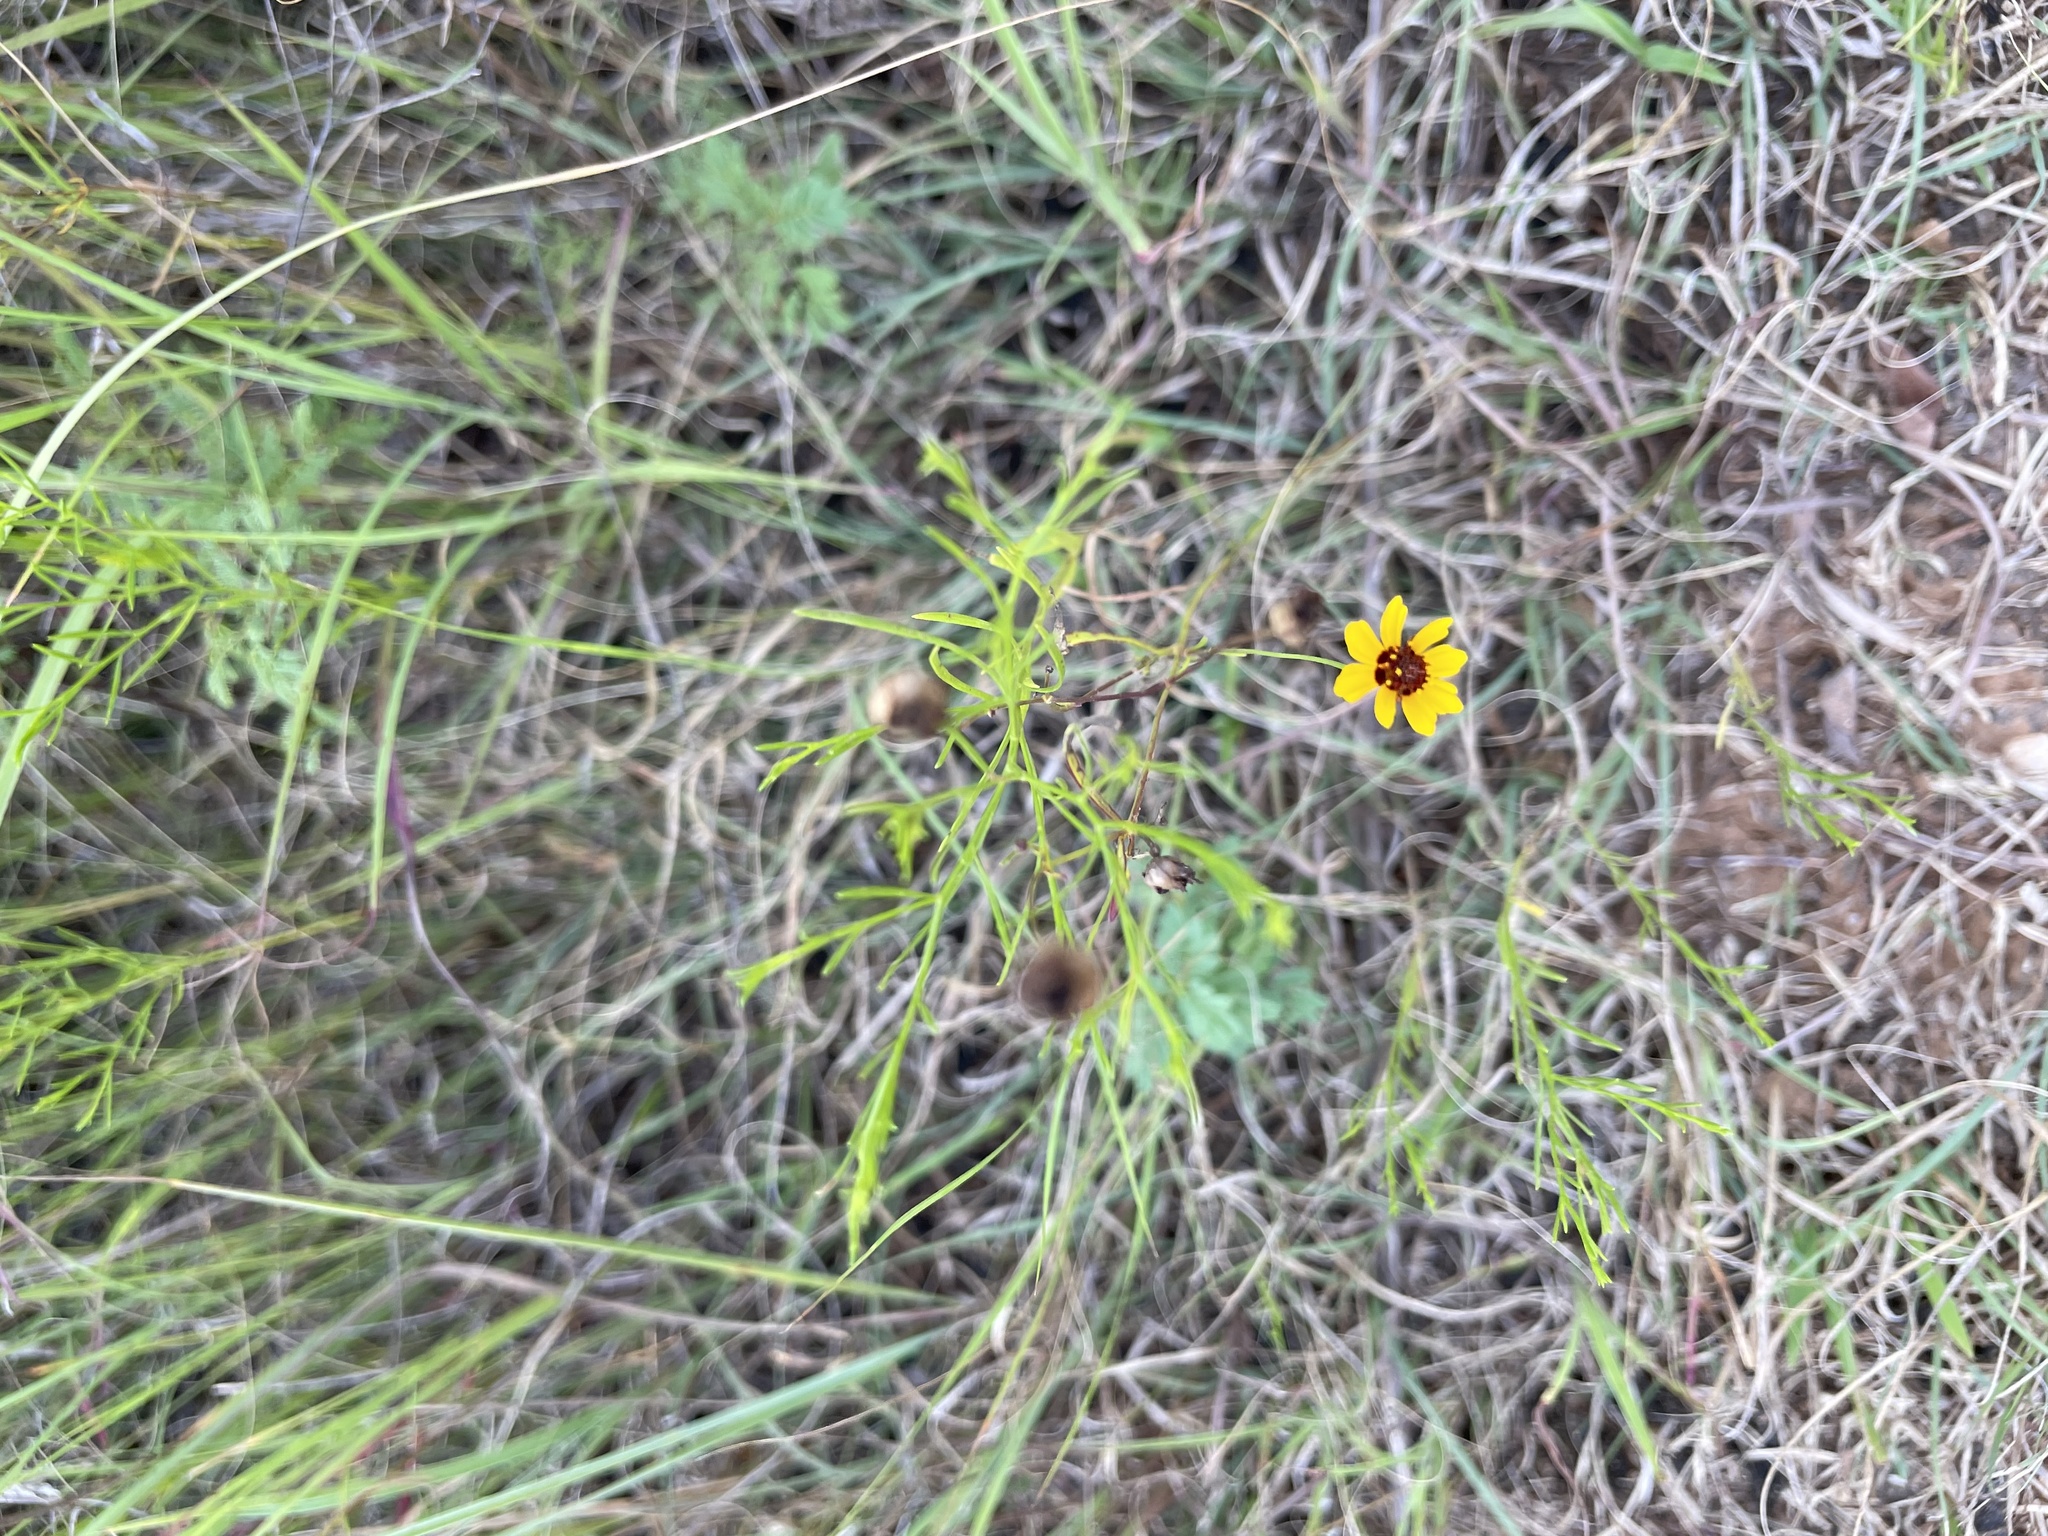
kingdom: Plantae
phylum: Tracheophyta
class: Magnoliopsida
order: Asterales
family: Asteraceae
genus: Coreopsis
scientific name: Coreopsis tinctoria
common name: Garden tickseed
